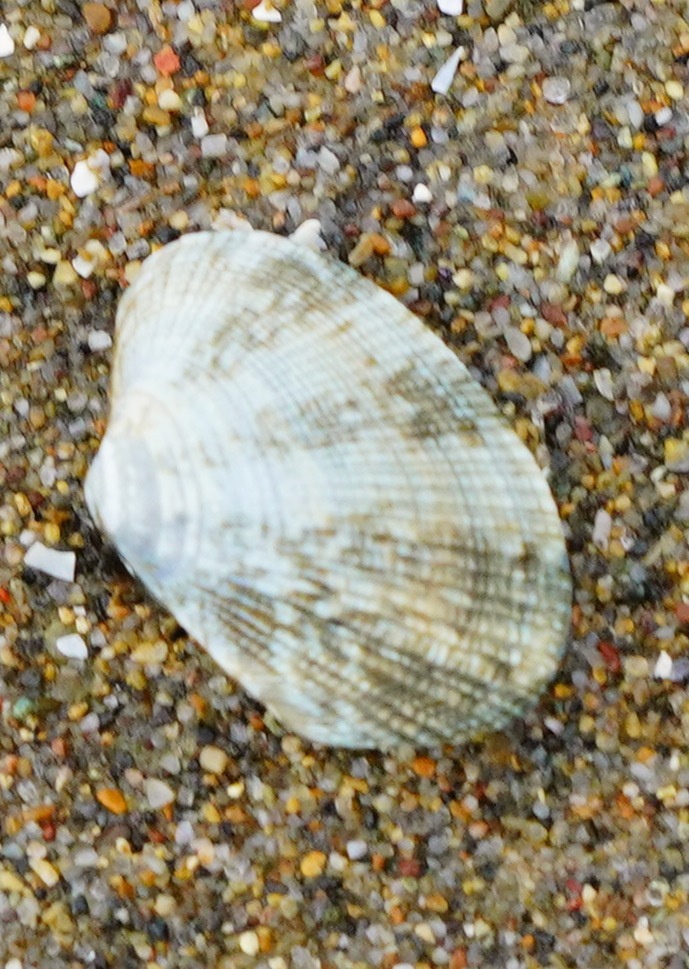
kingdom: Animalia
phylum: Mollusca
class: Bivalvia
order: Venerida
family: Veneridae
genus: Ruditapes
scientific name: Ruditapes philippinarum
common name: Manila clam
